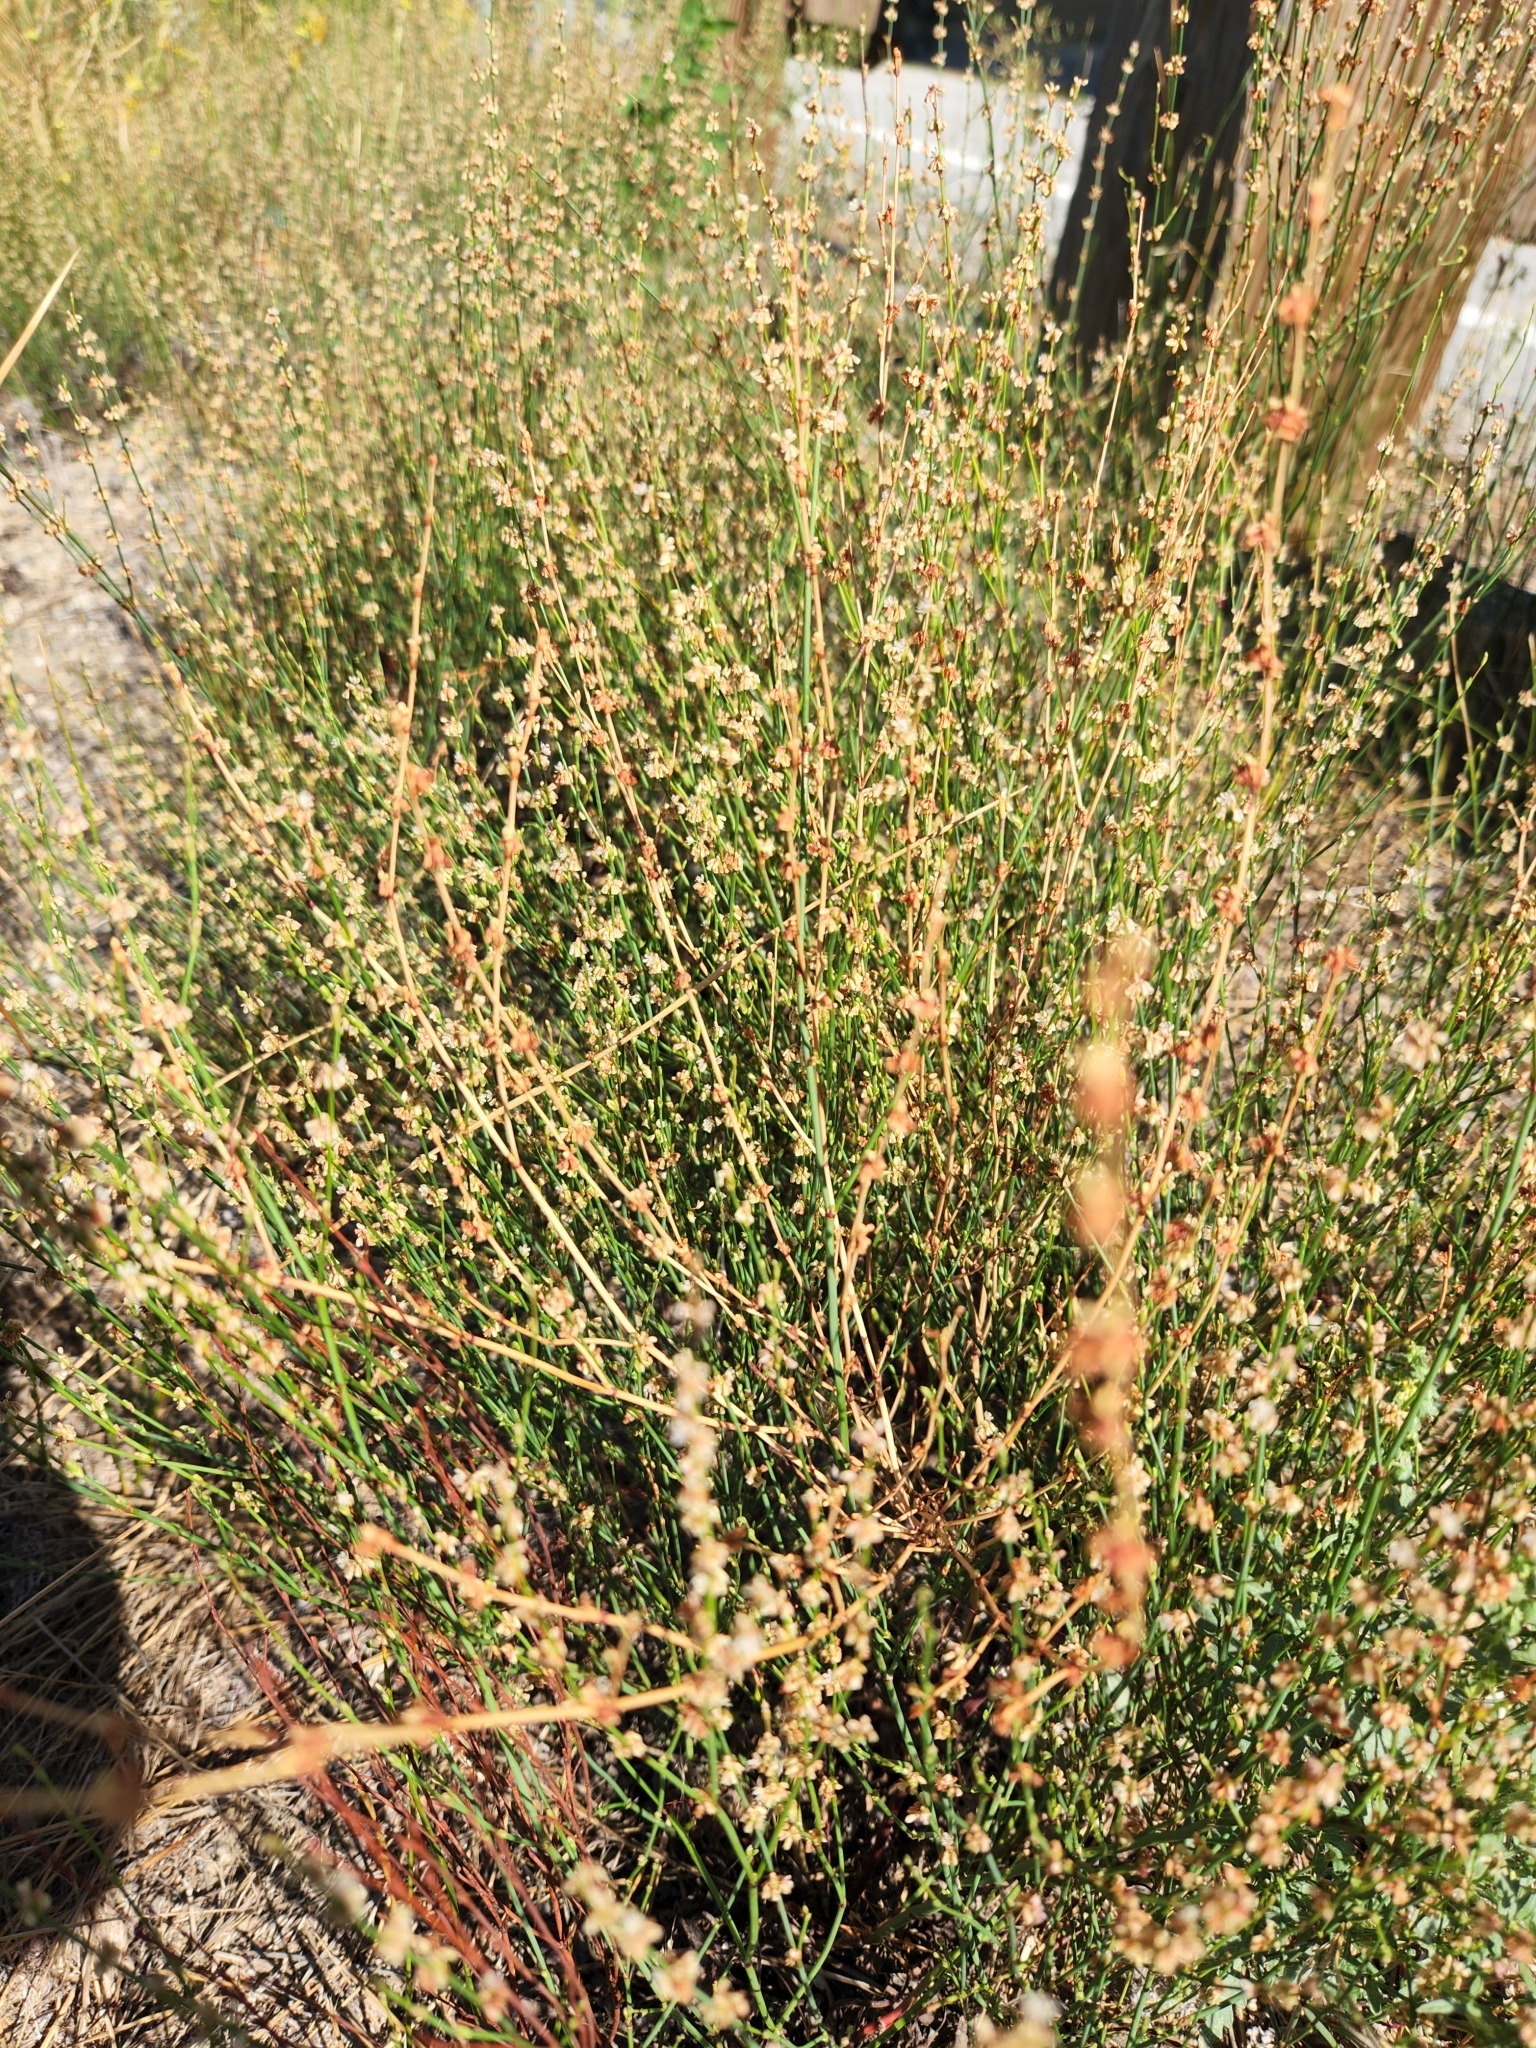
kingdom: Plantae
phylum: Tracheophyta
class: Magnoliopsida
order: Caryophyllales
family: Polygonaceae
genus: Eriogonum
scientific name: Eriogonum gracile
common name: Slender woolly buckwheat
